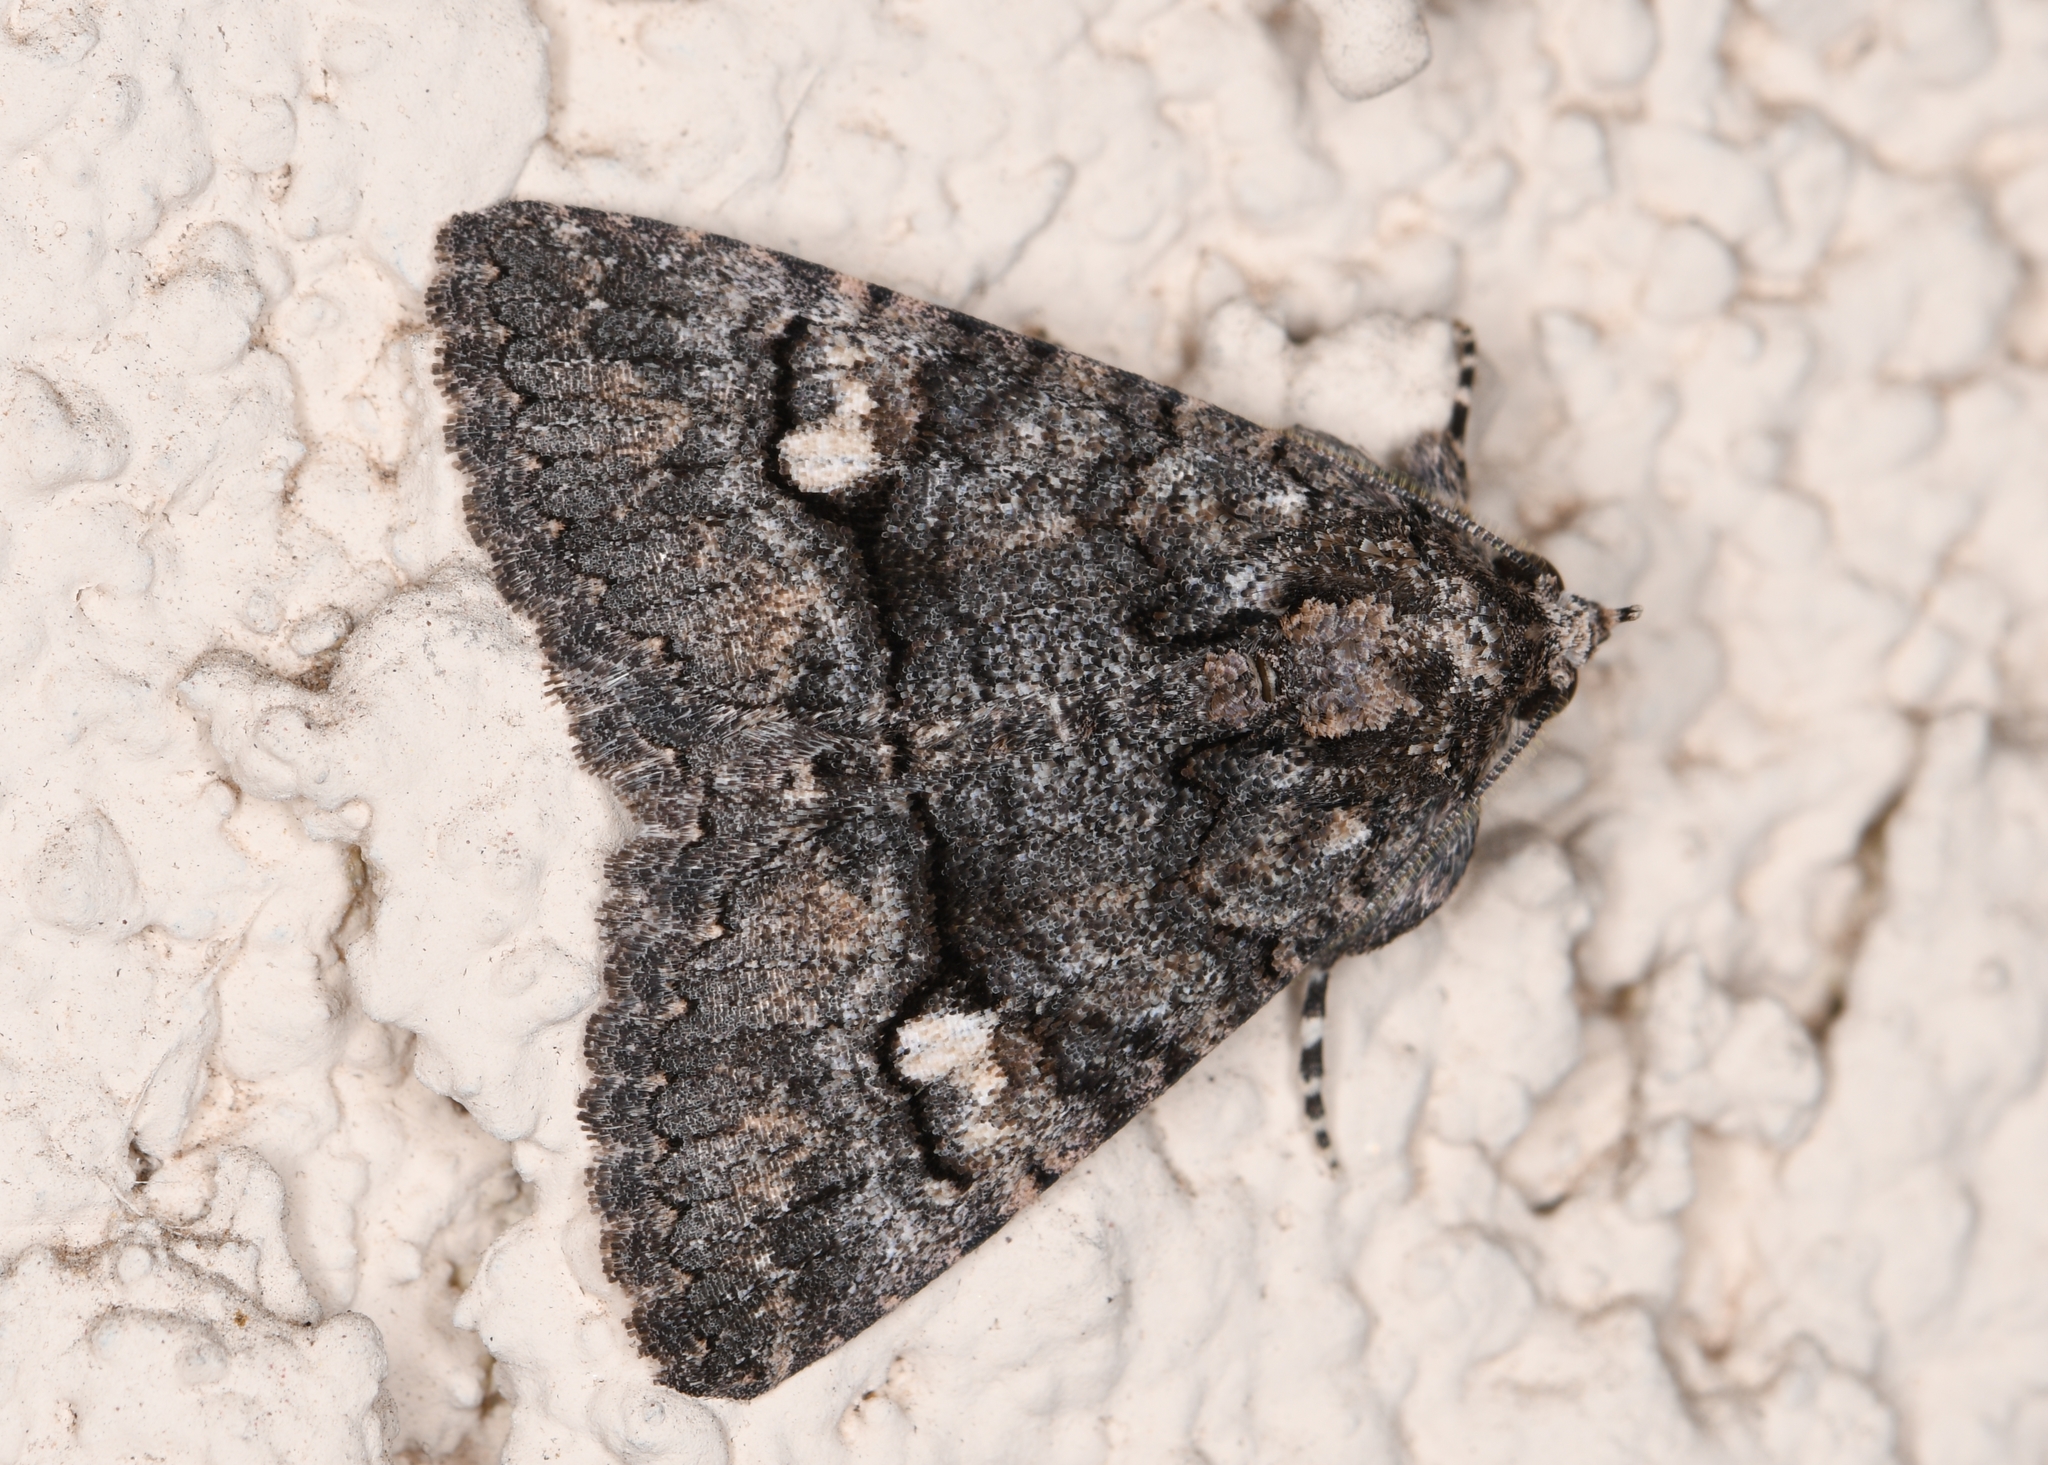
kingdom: Animalia
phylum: Arthropoda
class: Insecta
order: Lepidoptera
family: Erebidae
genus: Elousa
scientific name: Elousa mima
